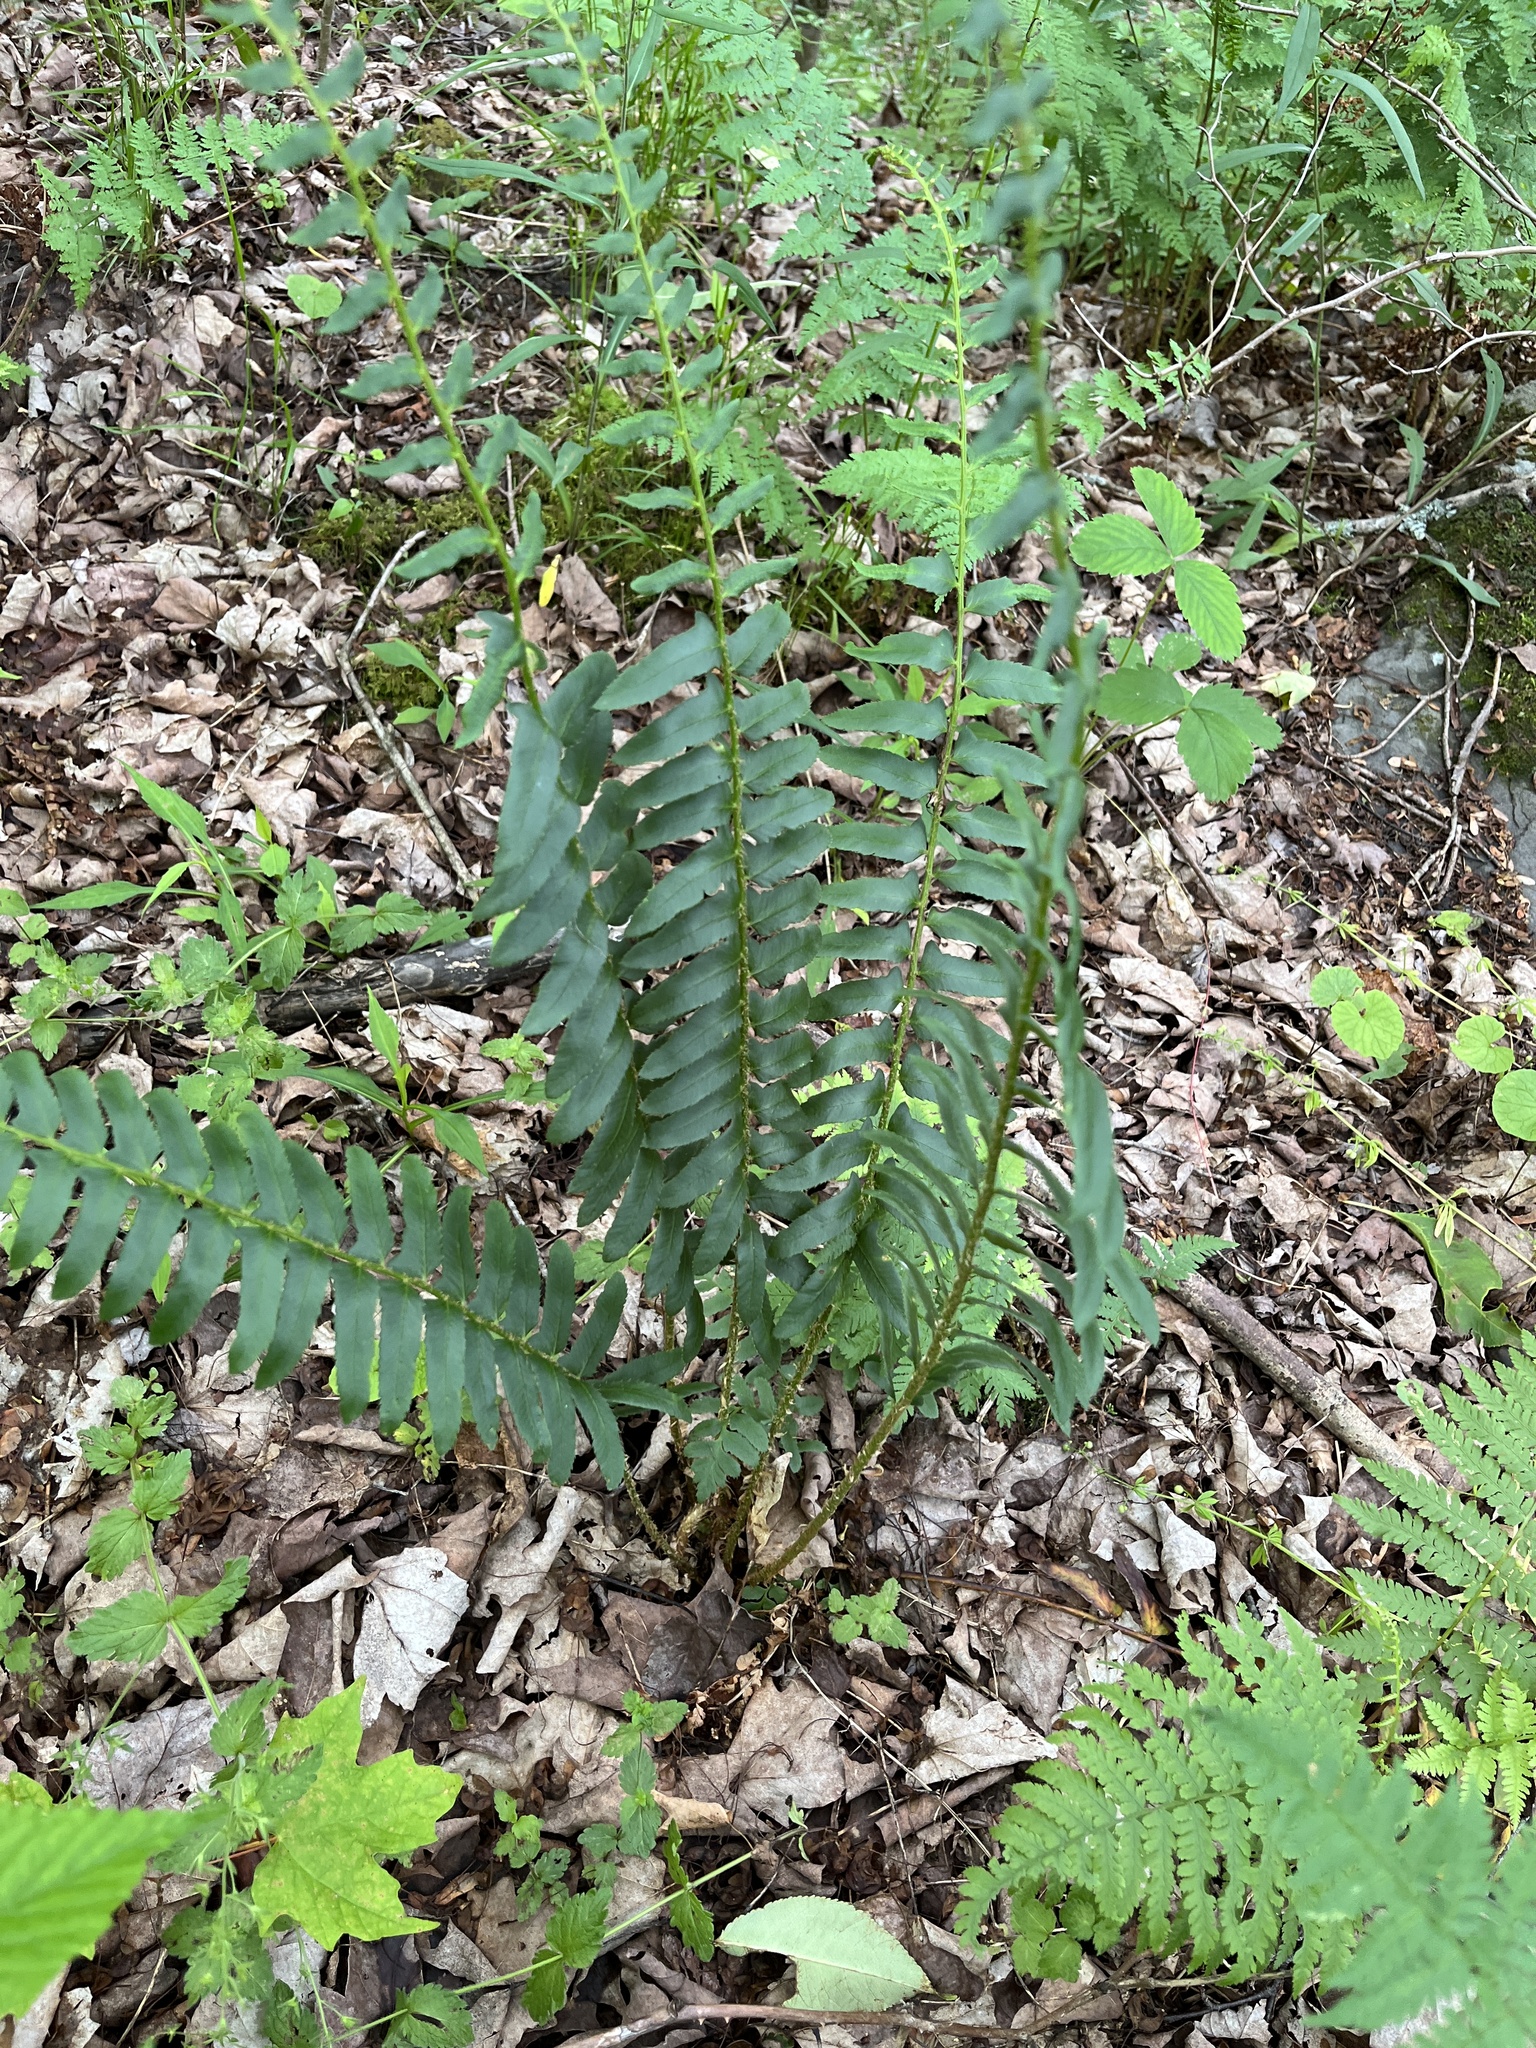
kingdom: Plantae
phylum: Tracheophyta
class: Polypodiopsida
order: Polypodiales
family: Dryopteridaceae
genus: Polystichum
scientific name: Polystichum acrostichoides
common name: Christmas fern
